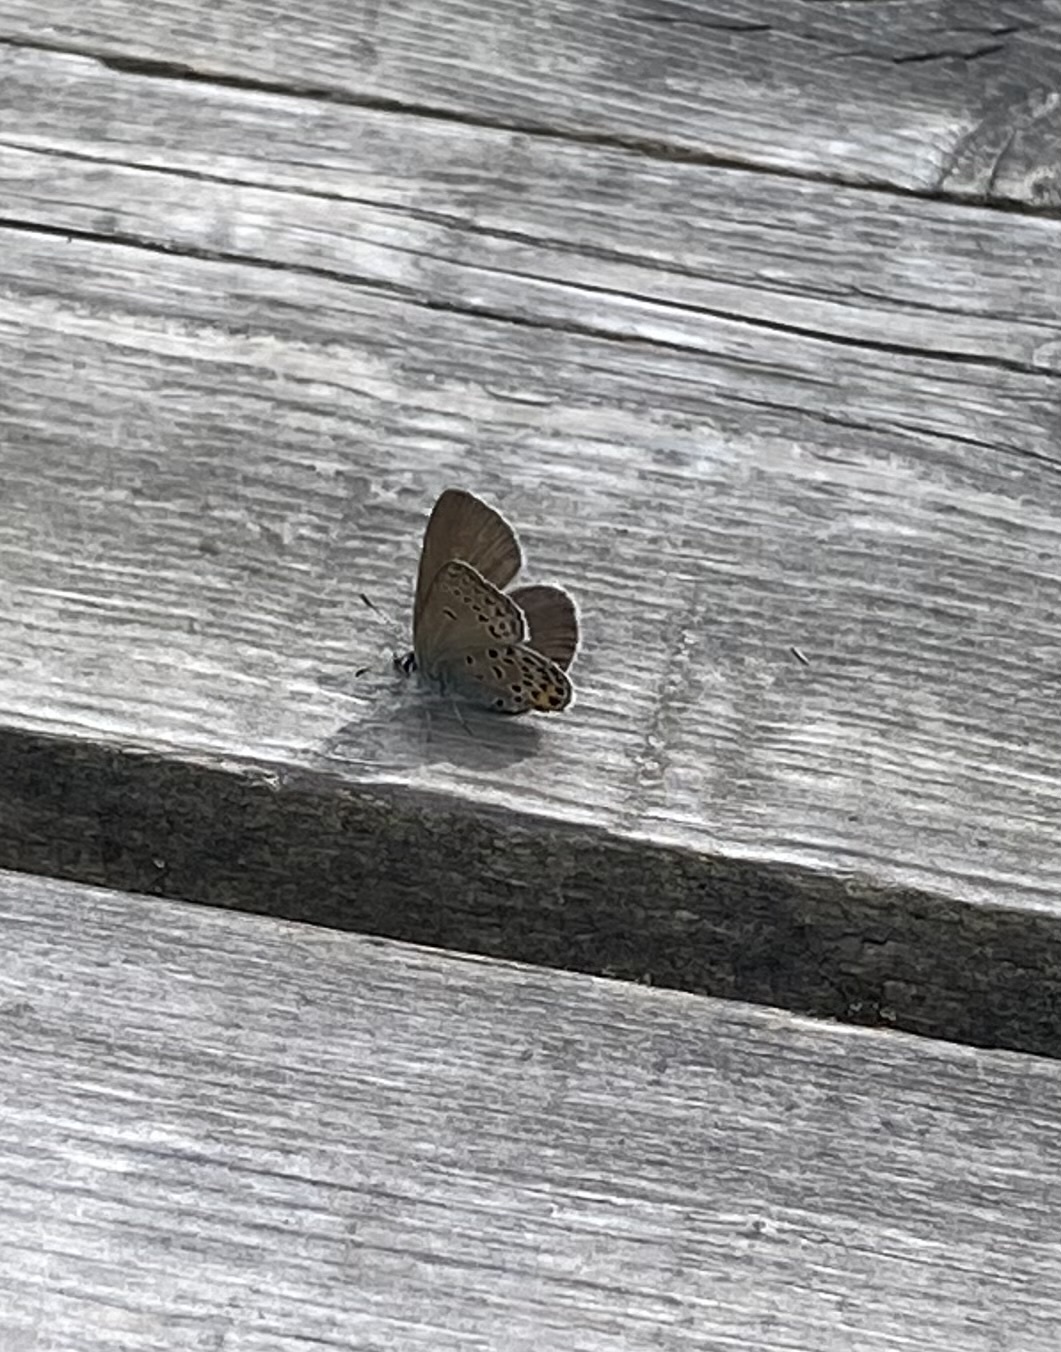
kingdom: Animalia
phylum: Arthropoda
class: Insecta
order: Lepidoptera
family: Lycaenidae
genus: Vacciniina
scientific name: Vacciniina optilete
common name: Cranberry blue
